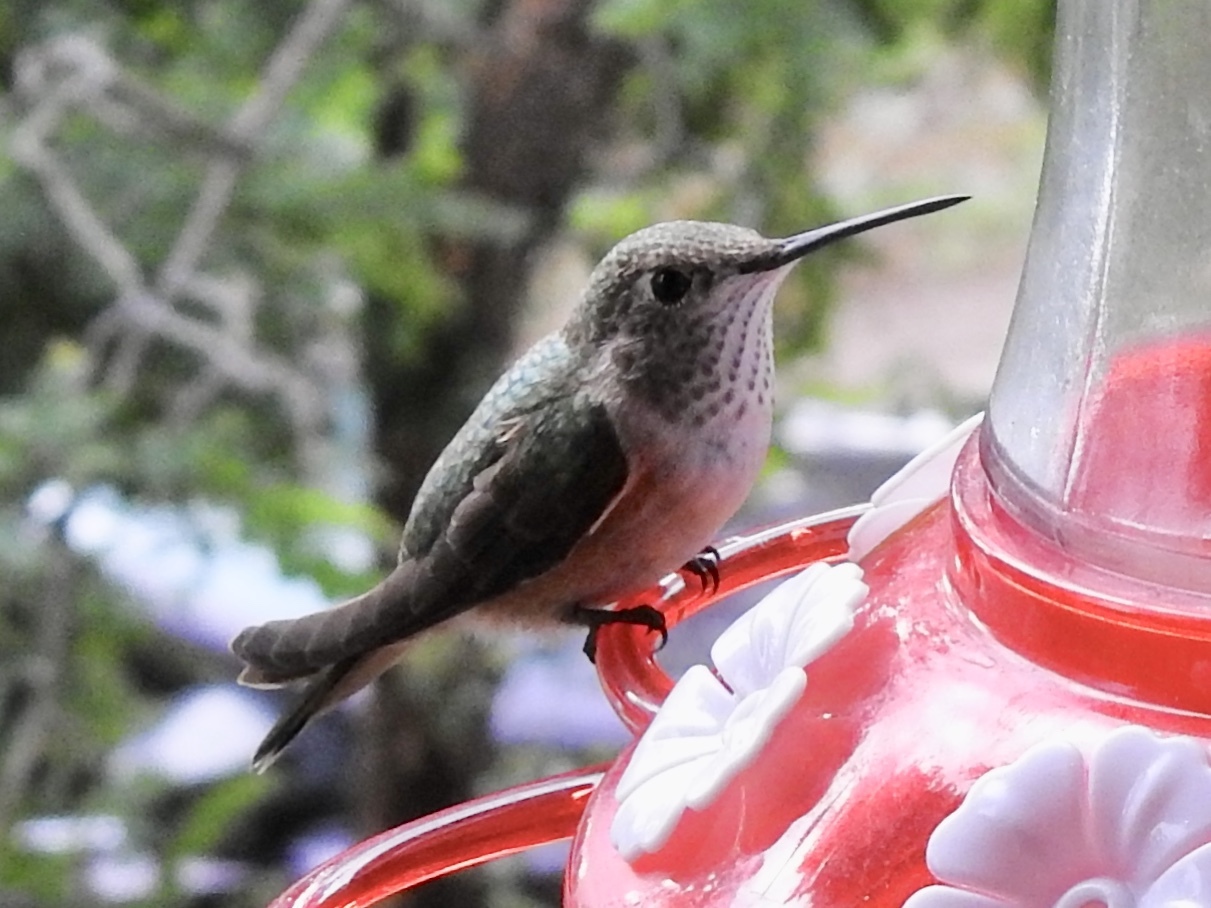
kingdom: Animalia
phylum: Chordata
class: Aves
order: Apodiformes
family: Trochilidae
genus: Selasphorus
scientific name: Selasphorus platycercus
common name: Broad-tailed hummingbird
